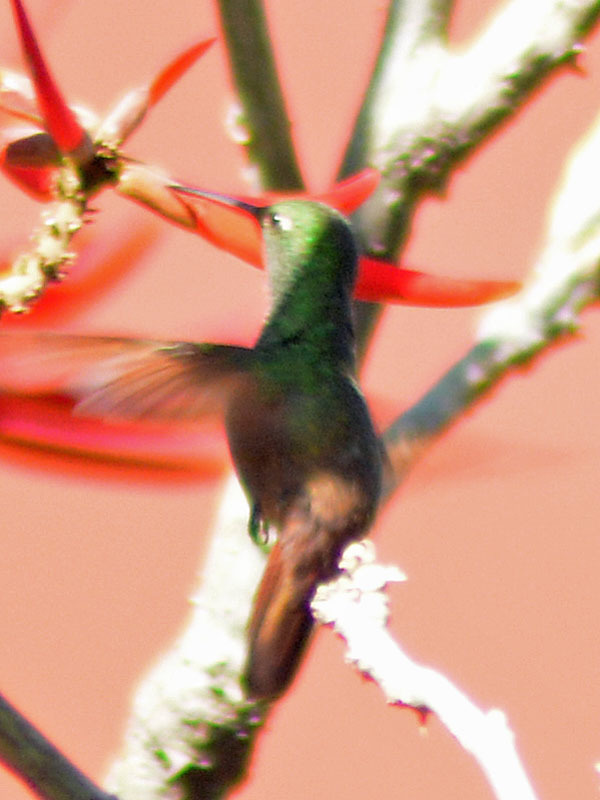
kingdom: Animalia
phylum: Chordata
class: Aves
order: Apodiformes
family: Trochilidae
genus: Saucerottia
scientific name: Saucerottia beryllina
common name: Berylline hummingbird
